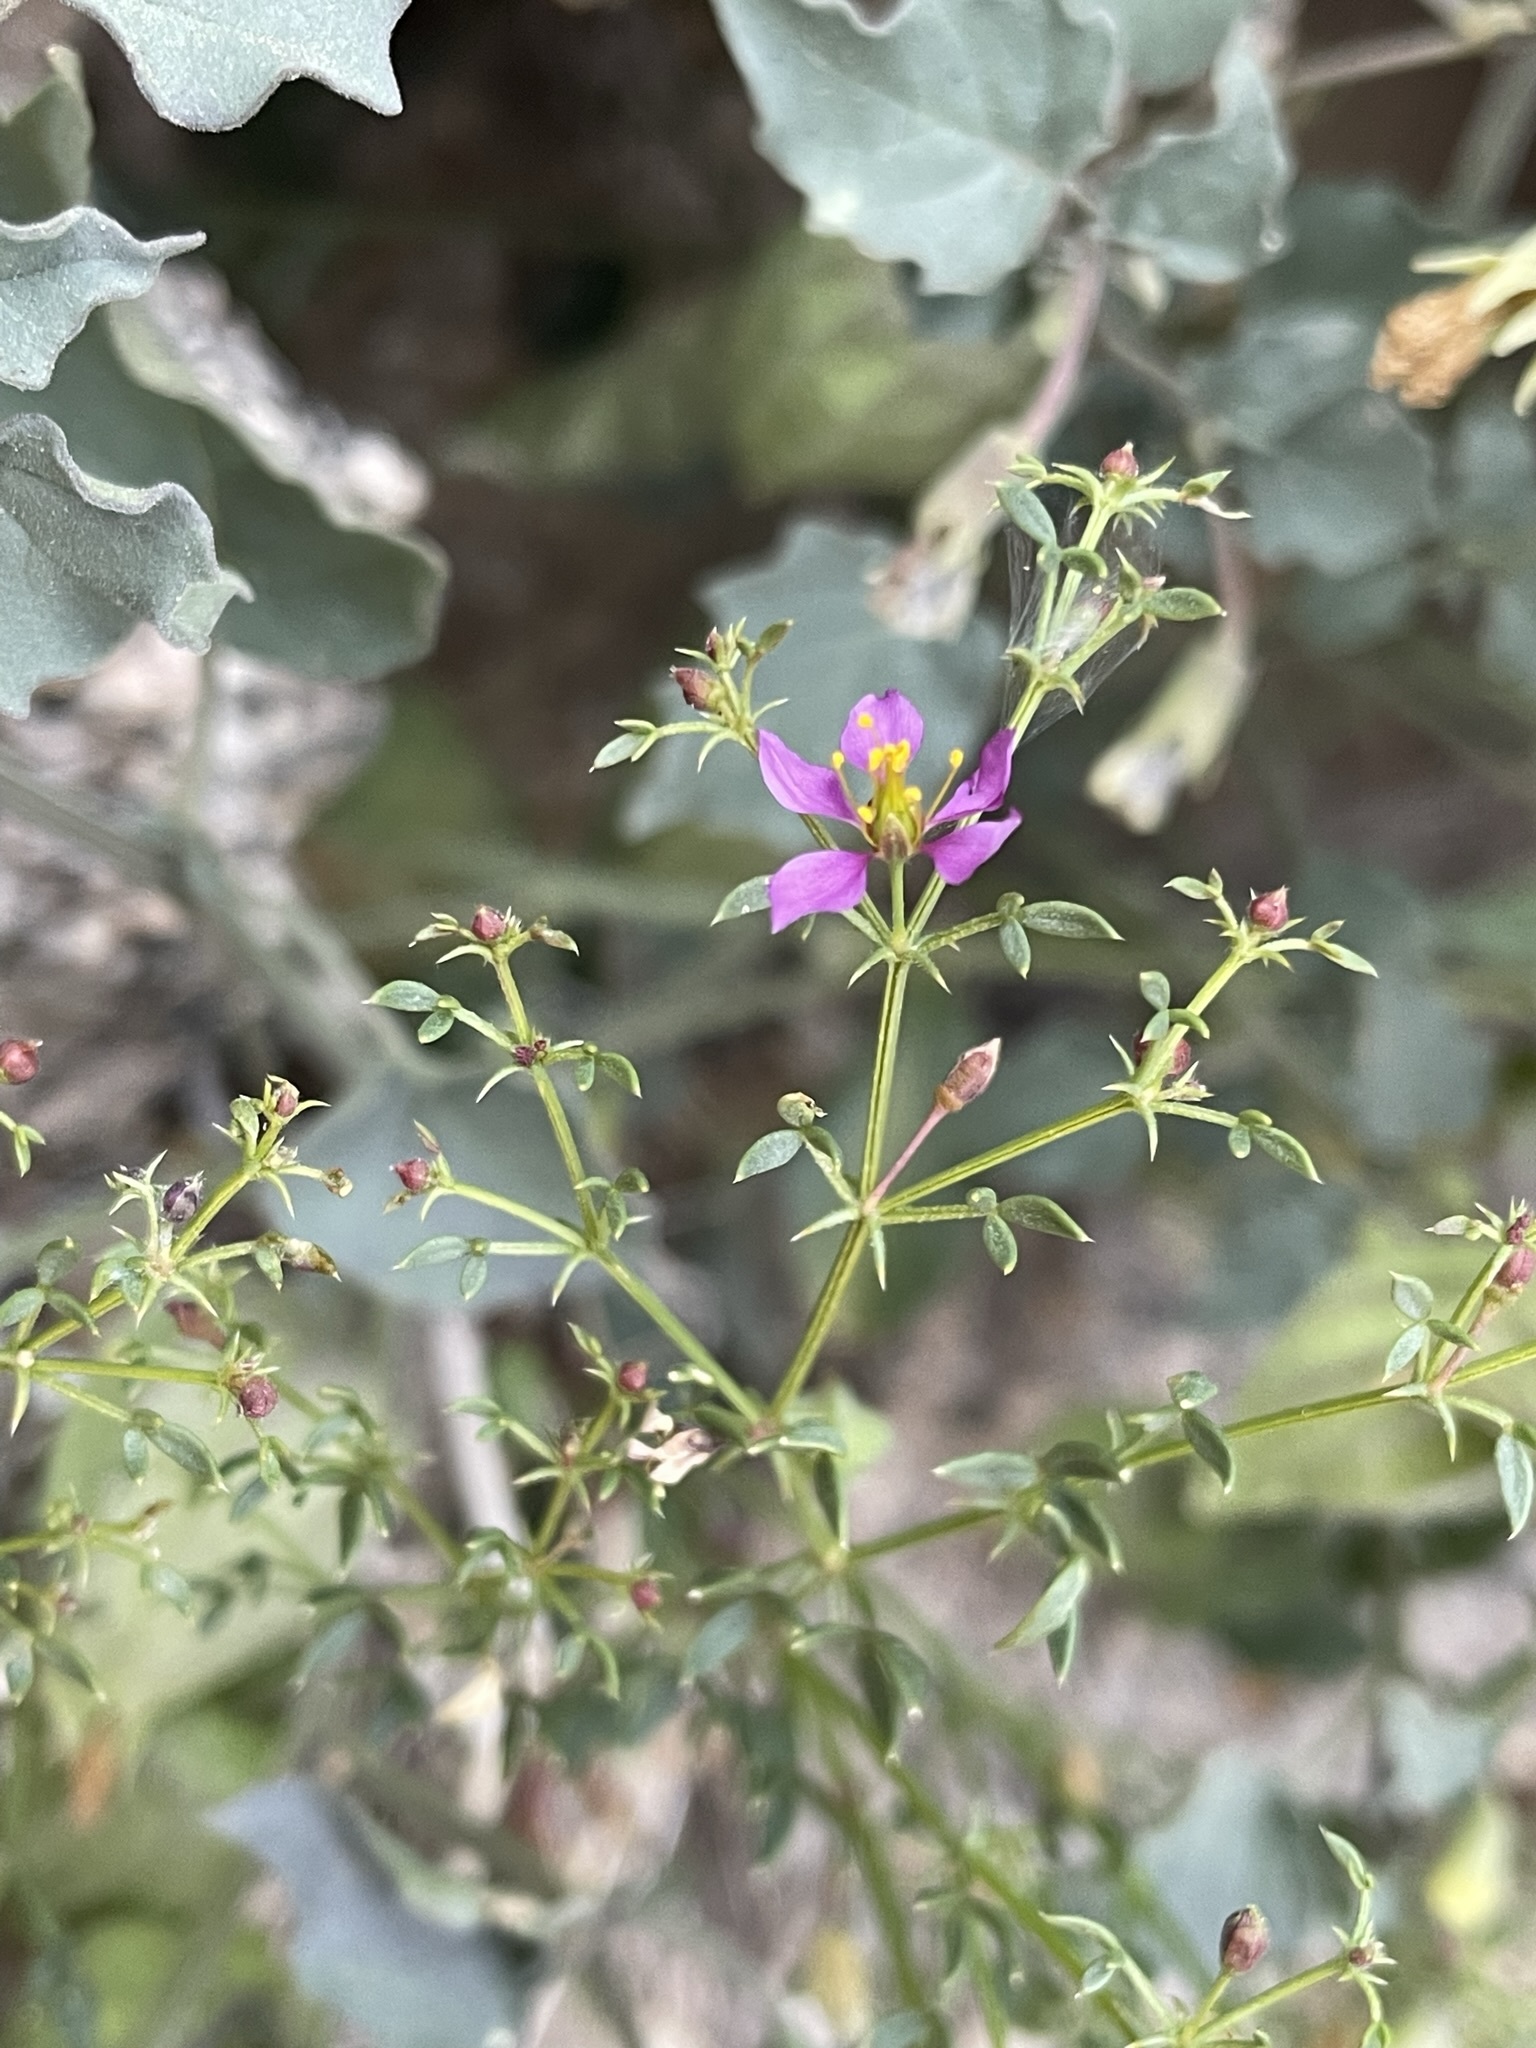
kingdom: Plantae
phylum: Tracheophyta
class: Magnoliopsida
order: Zygophyllales
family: Zygophyllaceae
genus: Fagonia
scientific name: Fagonia laevis
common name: California fagonbush
